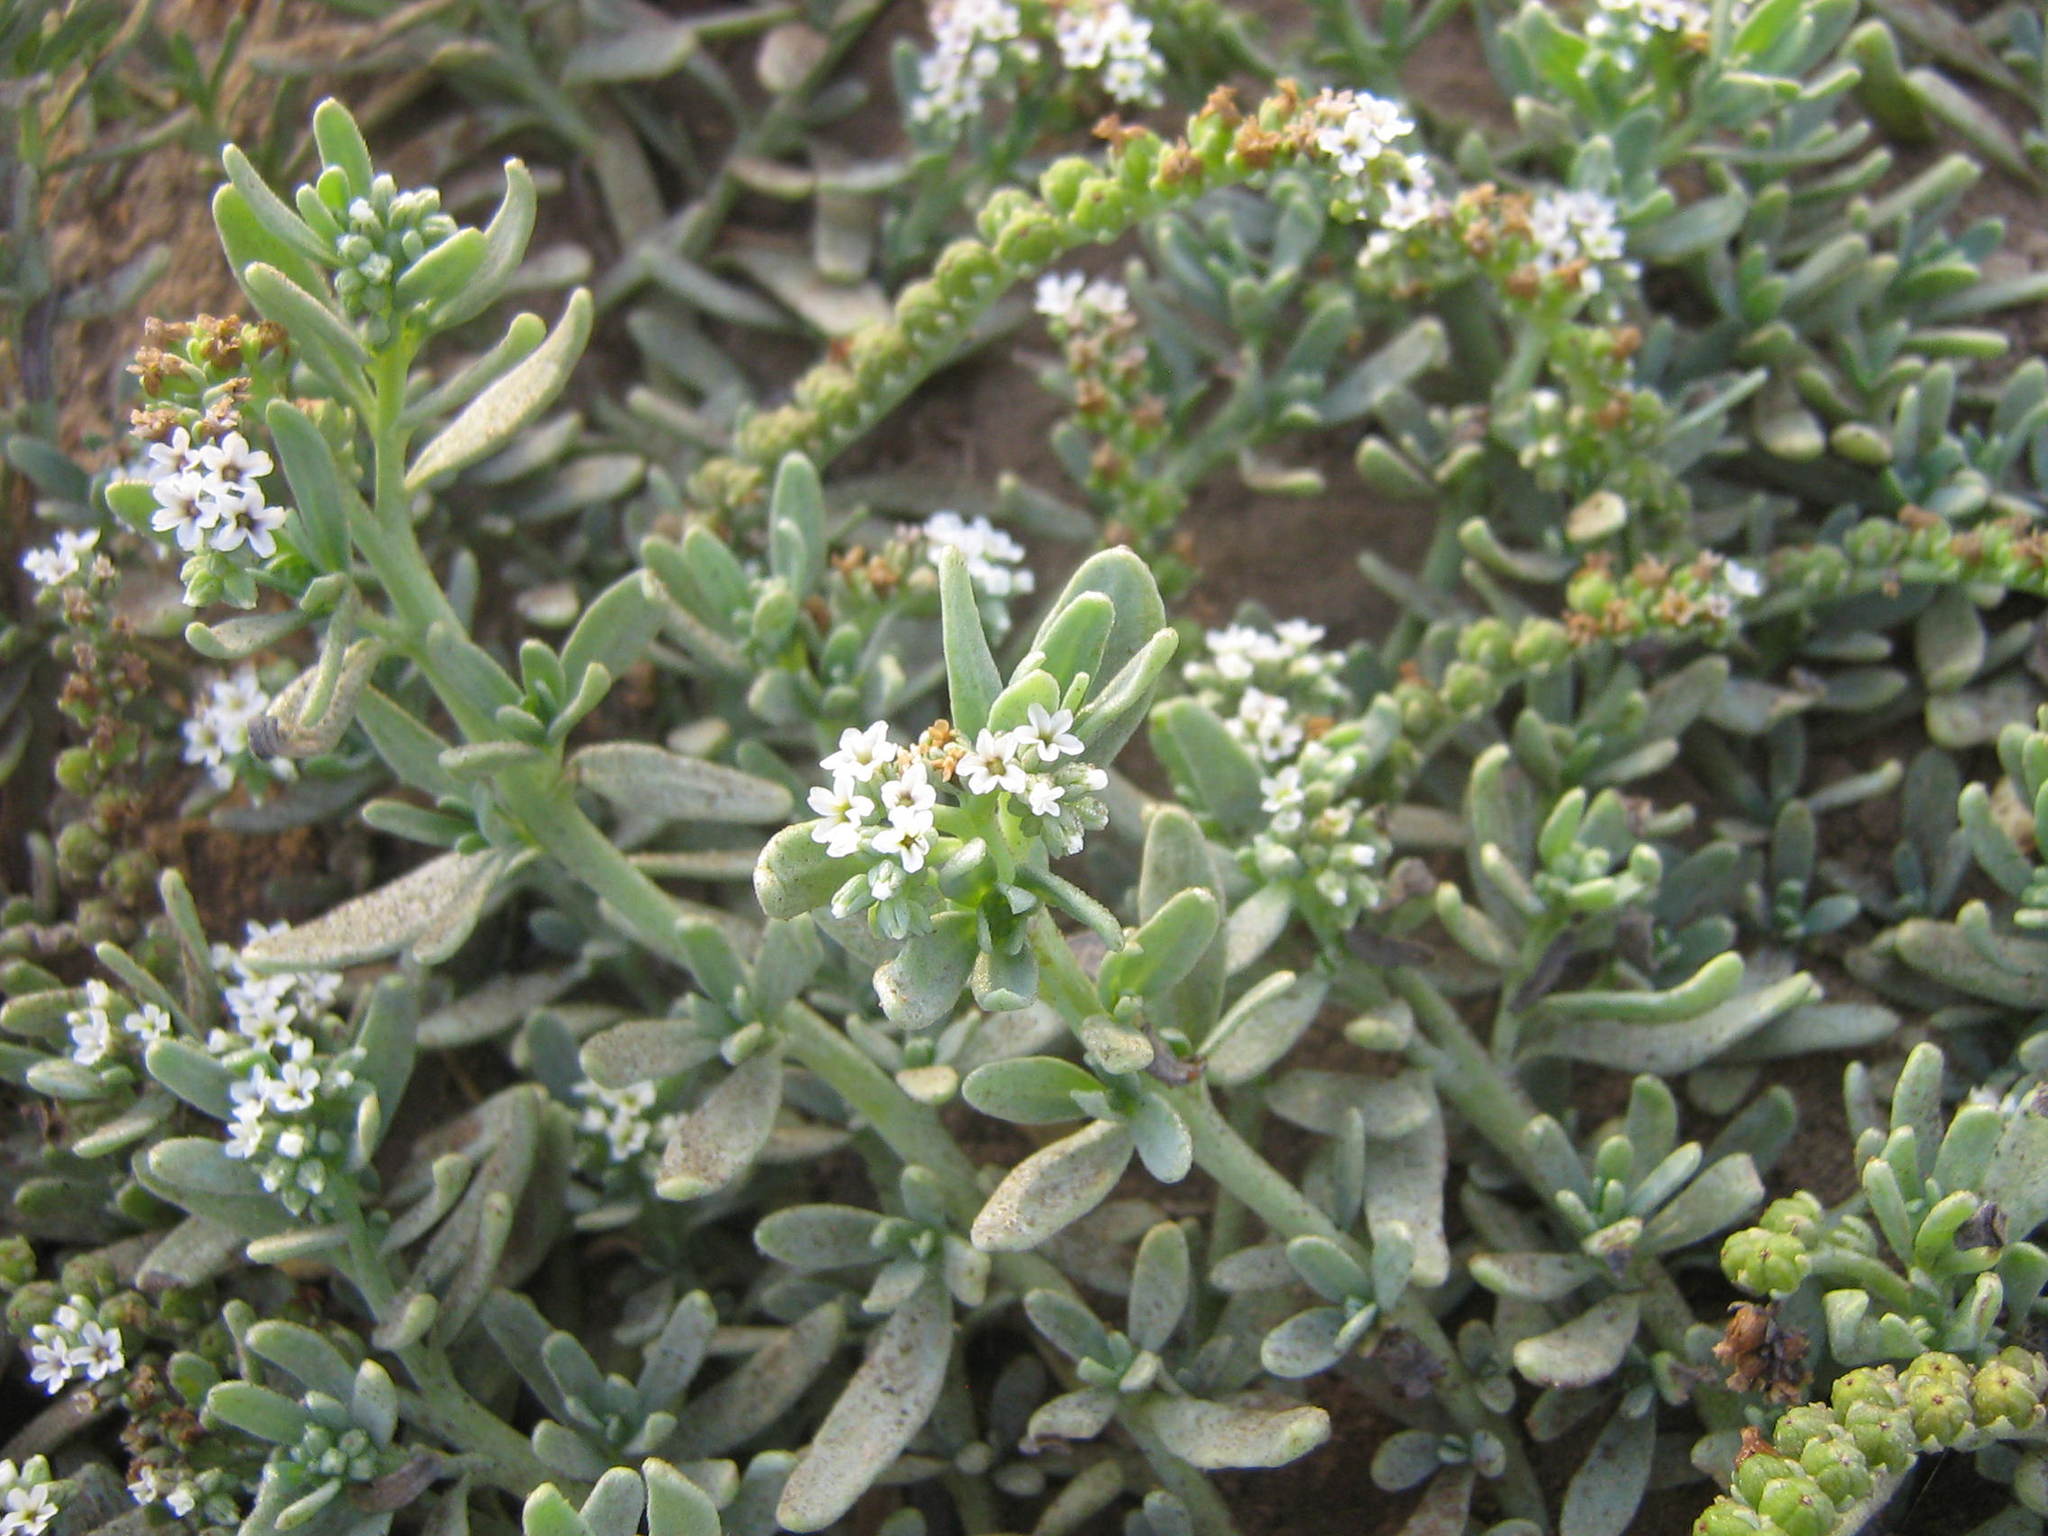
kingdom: Plantae
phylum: Tracheophyta
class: Magnoliopsida
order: Boraginales
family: Heliotropiaceae
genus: Heliotropium
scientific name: Heliotropium curassavicum
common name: Seaside heliotrope
